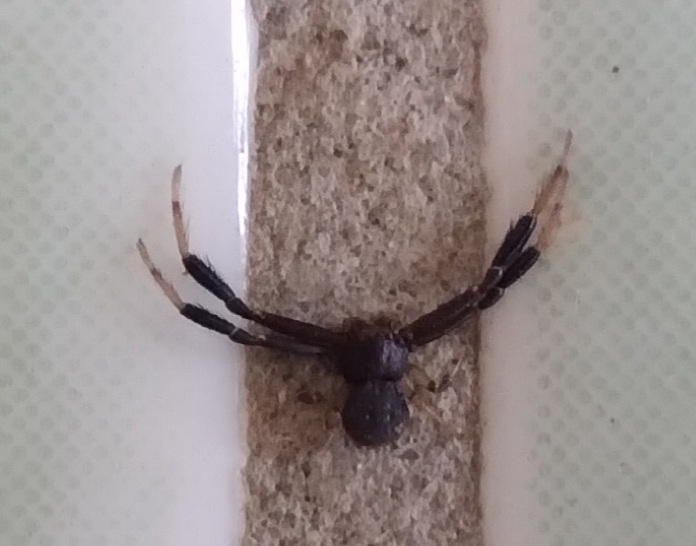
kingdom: Animalia
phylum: Arthropoda
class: Arachnida
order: Araneae
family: Thomisidae
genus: Misumenoides
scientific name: Misumenoides athleticus
